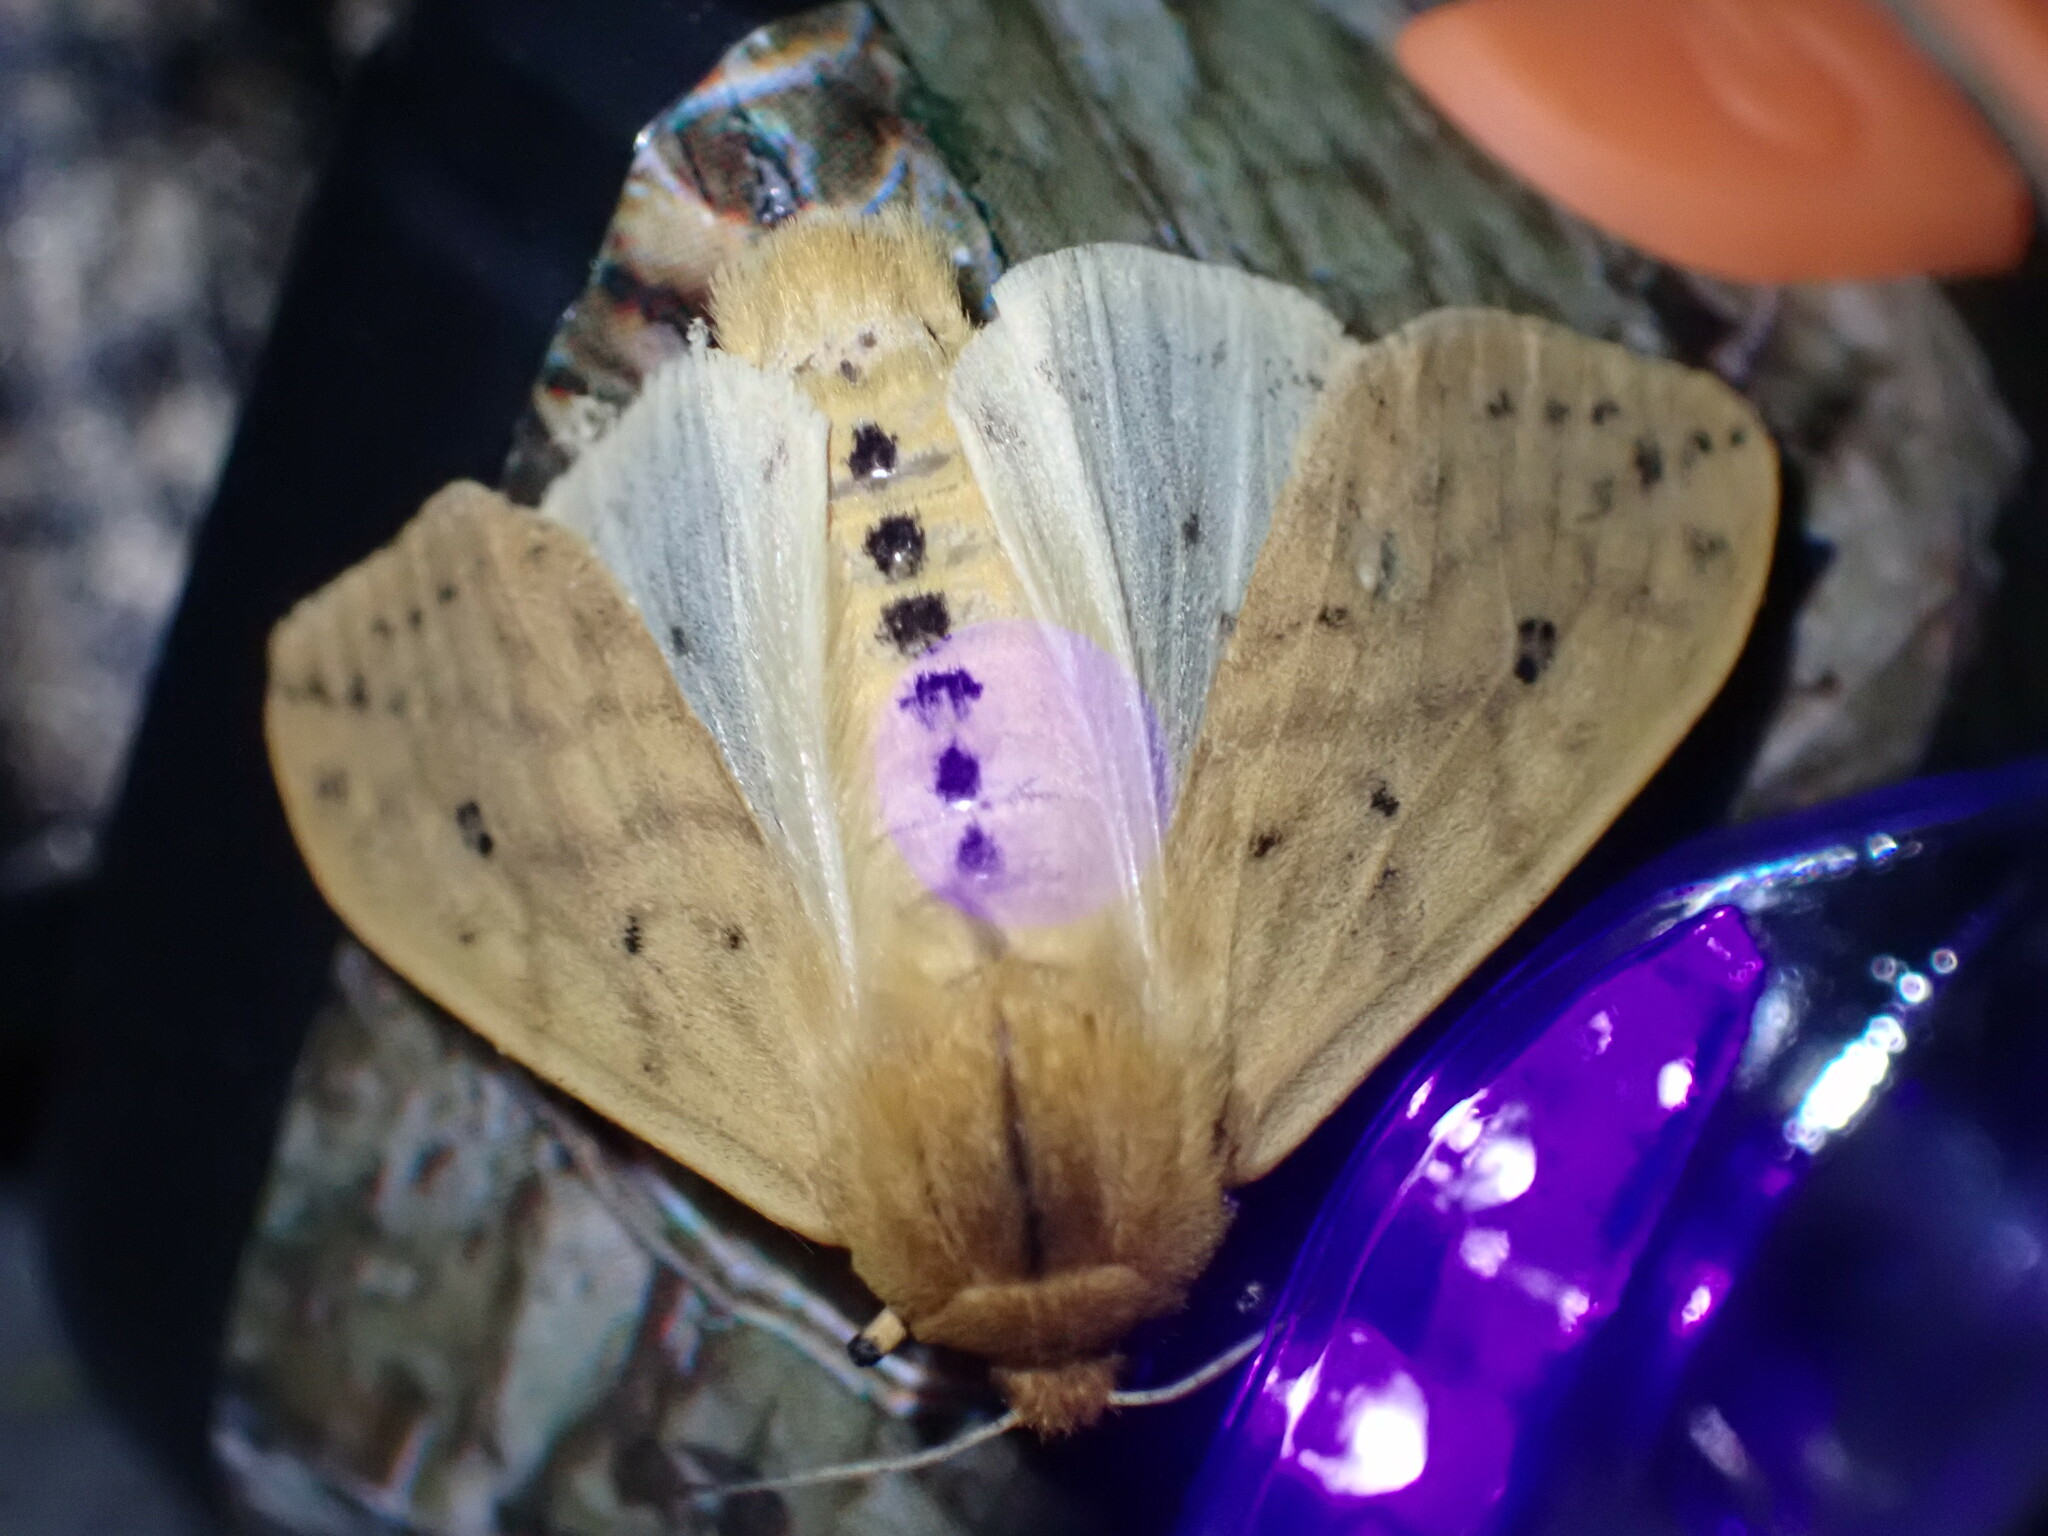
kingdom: Animalia
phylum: Arthropoda
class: Insecta
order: Lepidoptera
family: Erebidae
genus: Pyrrharctia
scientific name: Pyrrharctia isabella
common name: Isabella tiger moth
